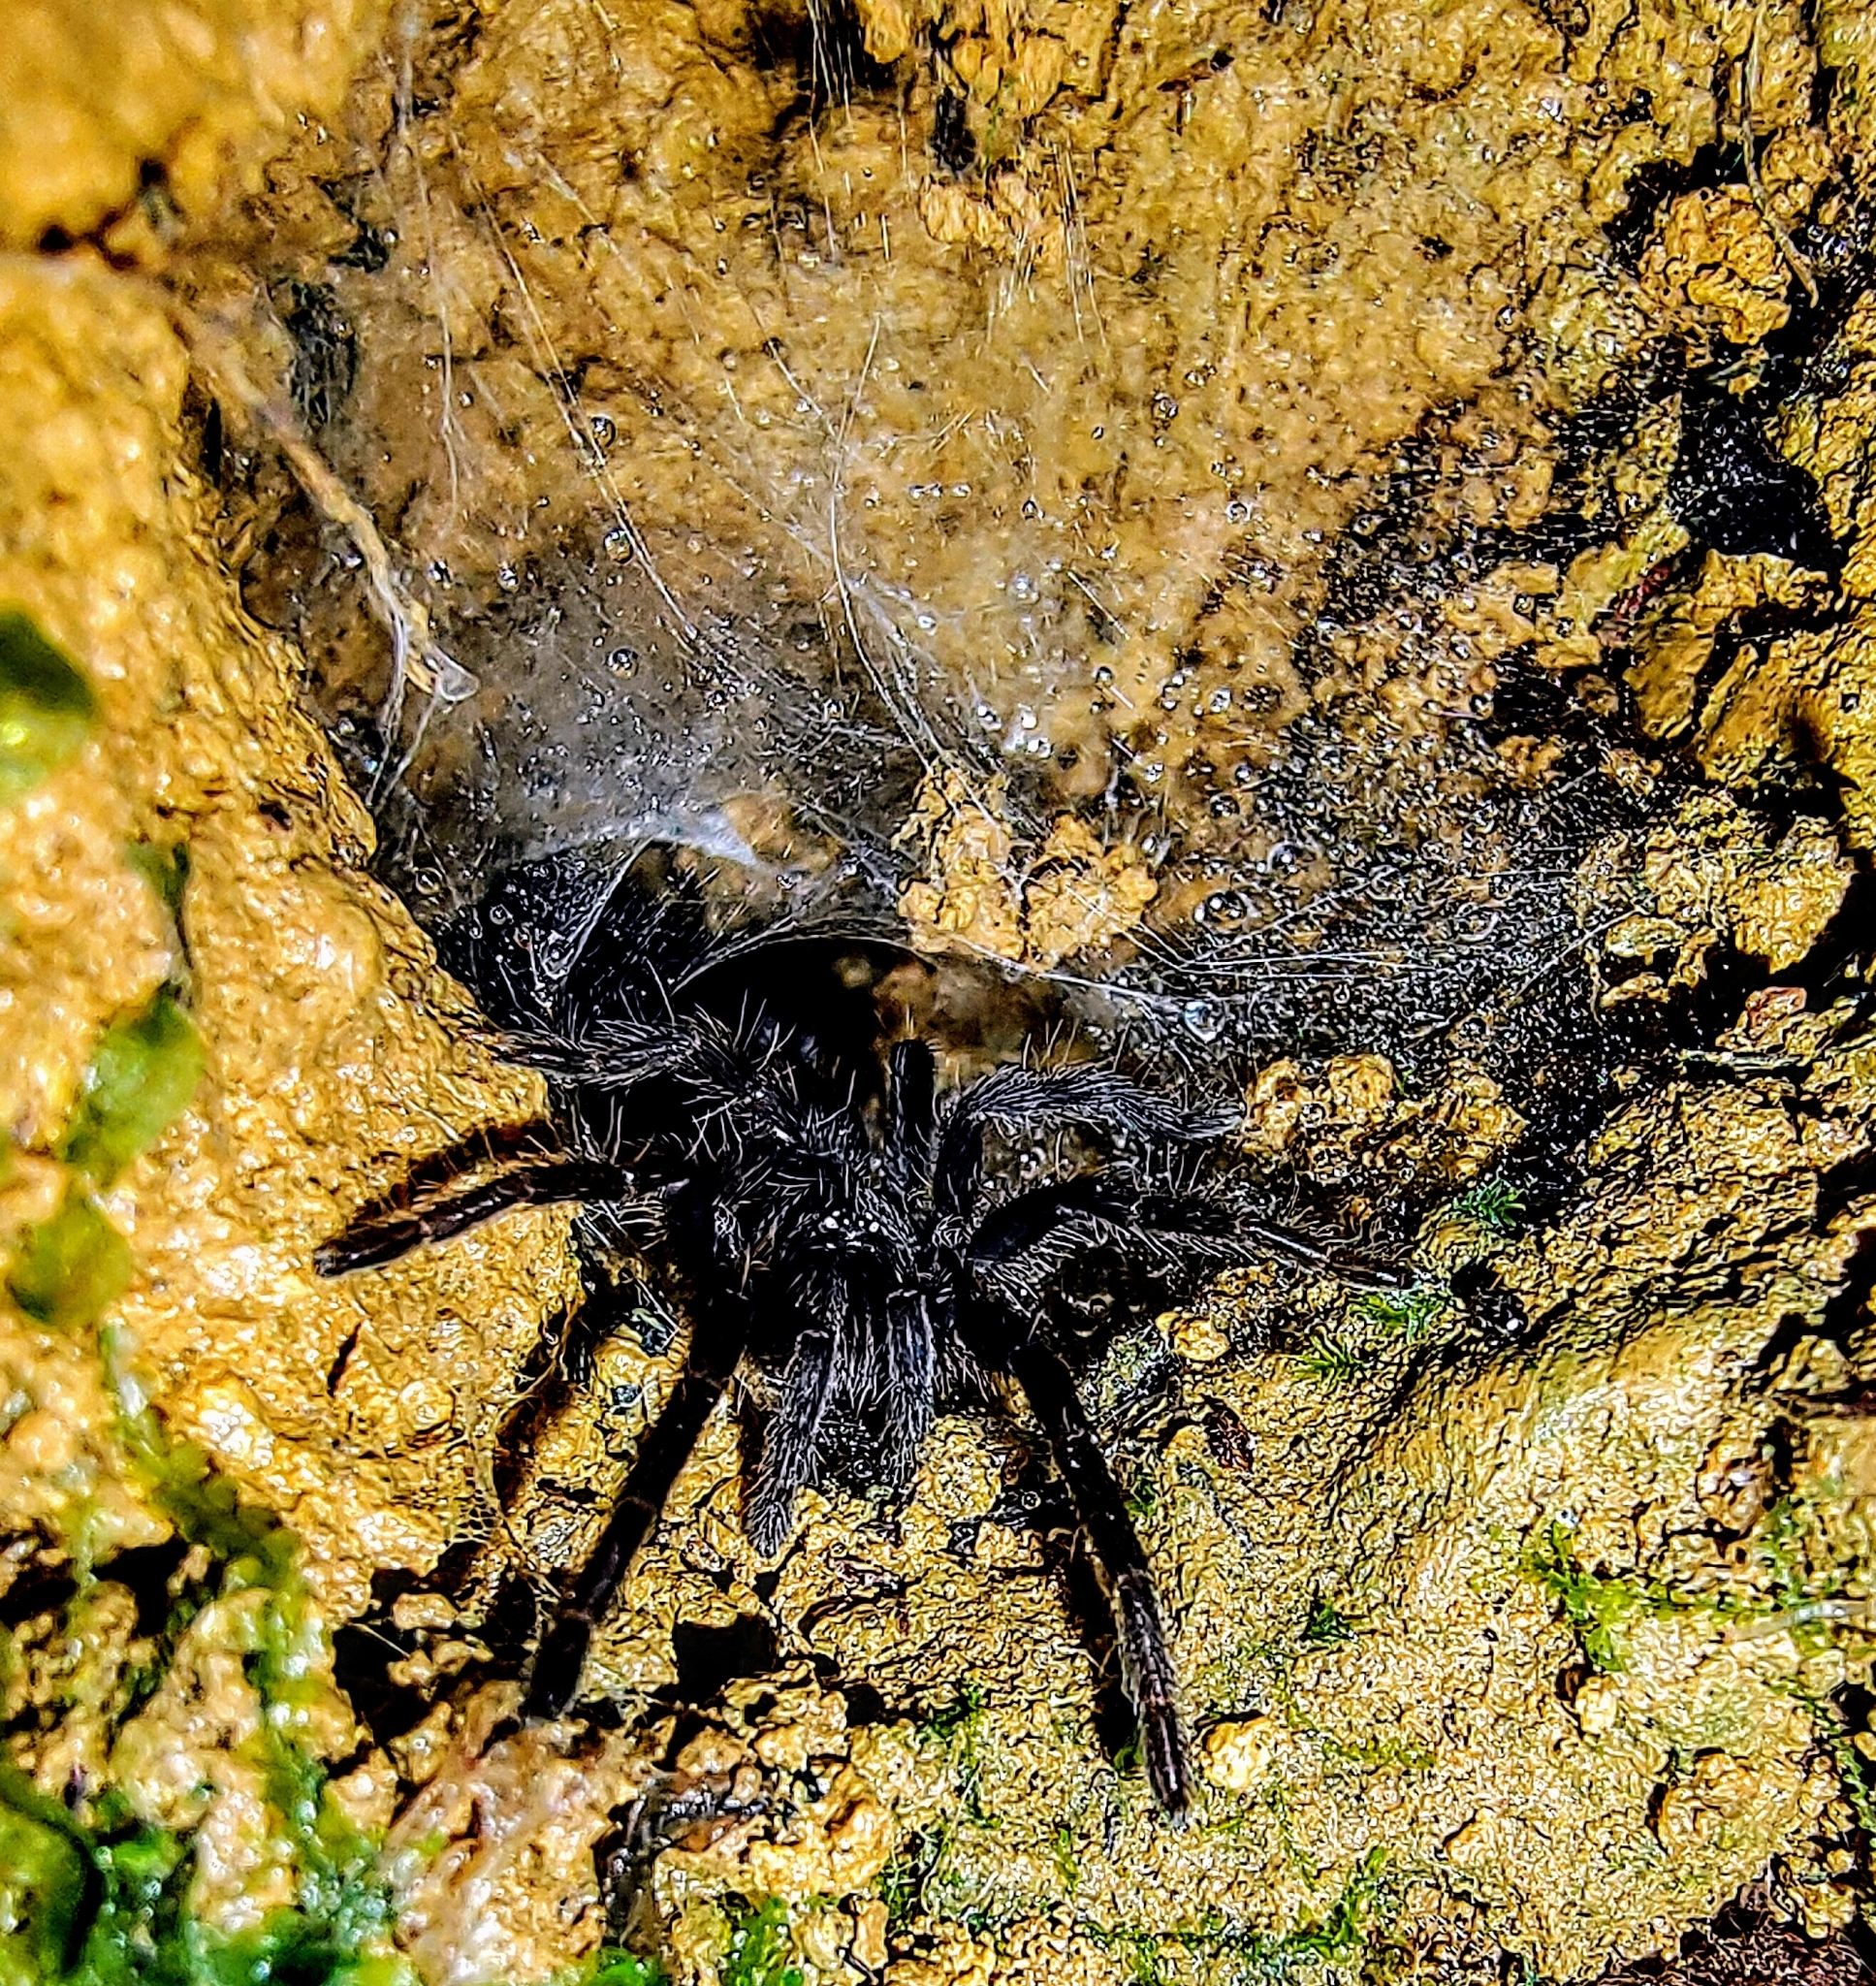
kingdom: Animalia
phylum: Arthropoda
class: Arachnida
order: Araneae
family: Theraphosidae
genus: Phlogiellus
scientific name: Phlogiellus inermis
